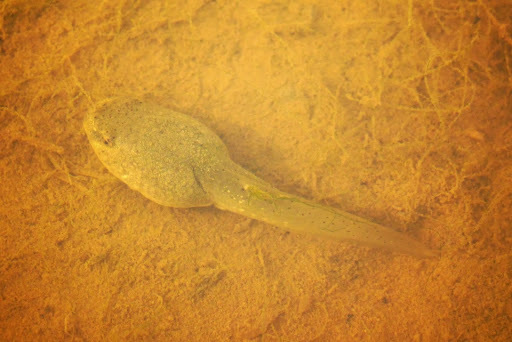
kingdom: Animalia
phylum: Chordata
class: Amphibia
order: Anura
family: Ranidae
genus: Lithobates
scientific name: Lithobates catesbeianus
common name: American bullfrog
